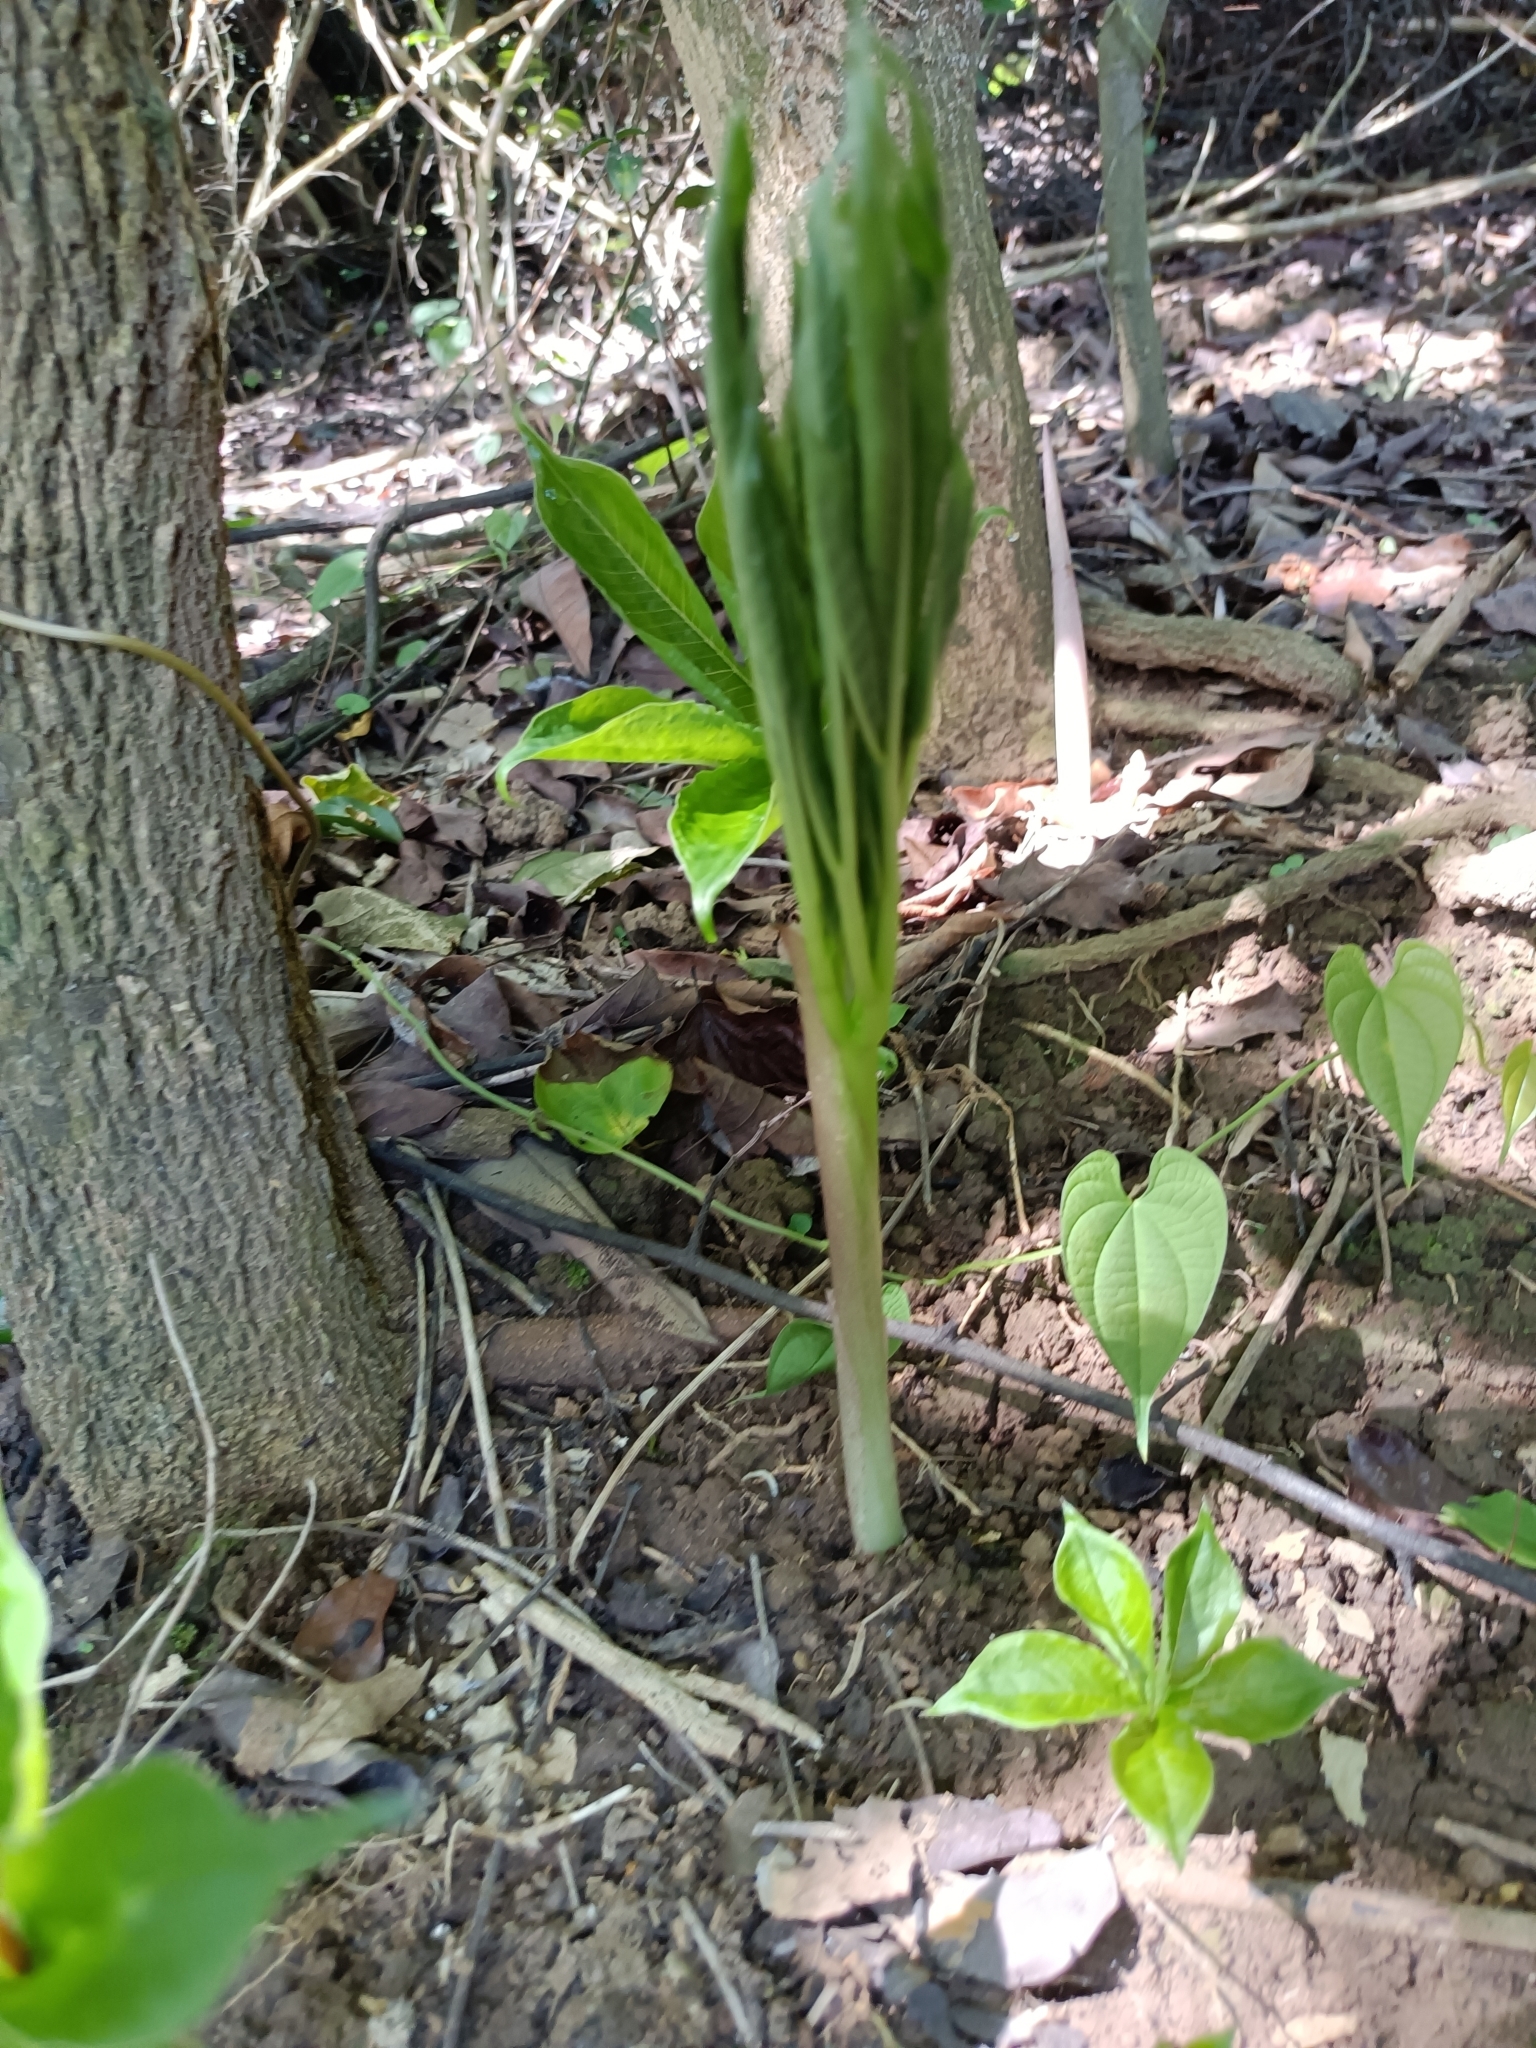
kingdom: Plantae
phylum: Tracheophyta
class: Liliopsida
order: Alismatales
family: Araceae
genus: Amorphophallus
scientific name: Amorphophallus henryi
